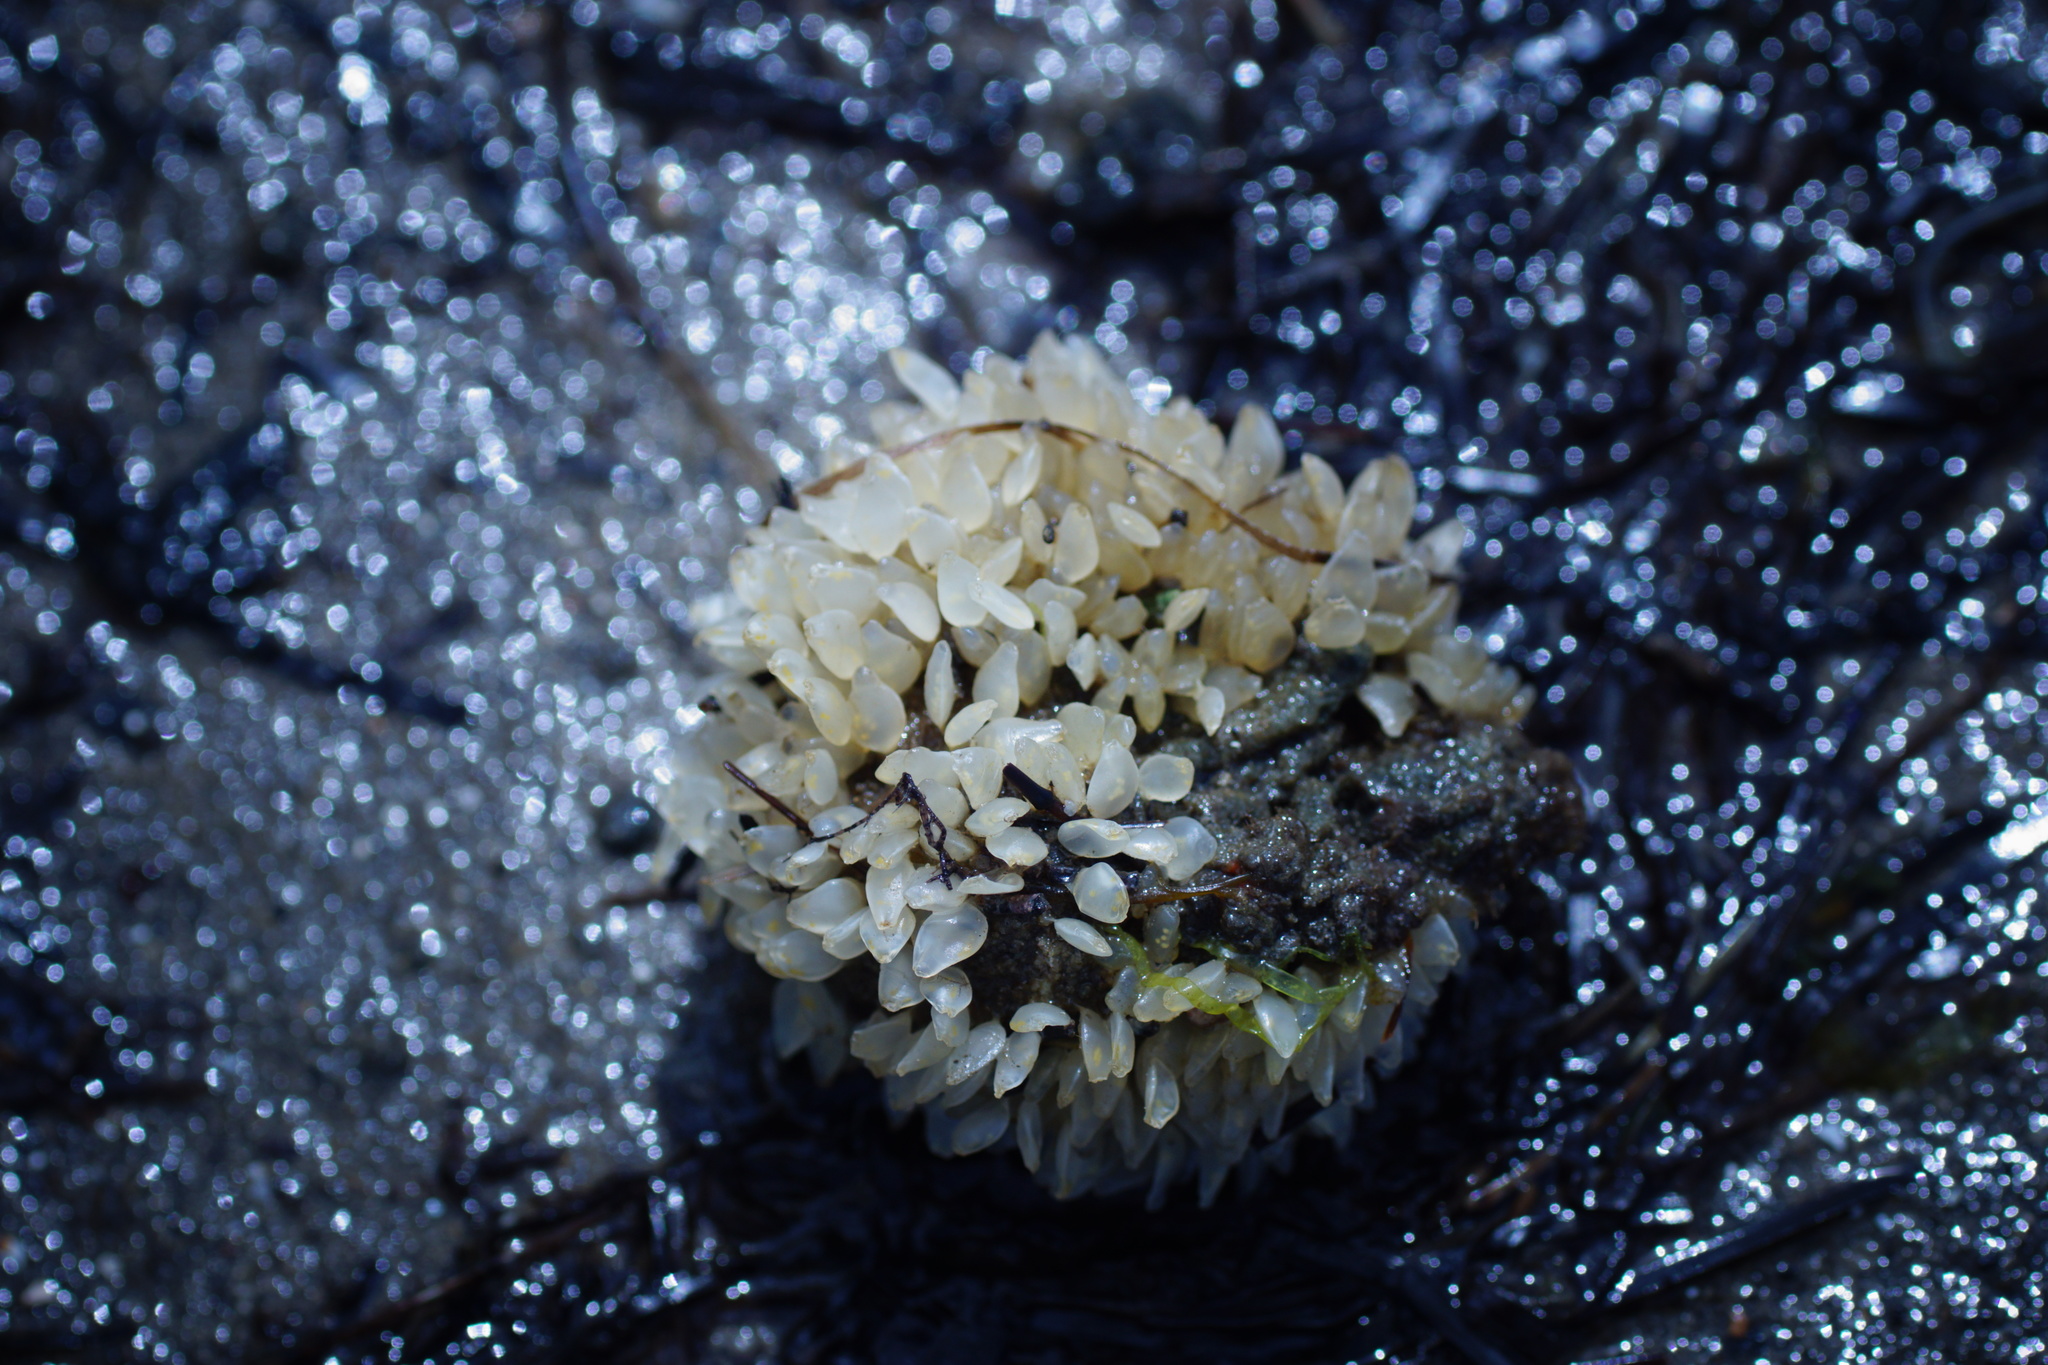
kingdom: Animalia
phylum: Mollusca
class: Gastropoda
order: Neogastropoda
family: Cominellidae
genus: Cominella
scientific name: Cominella lineolata
